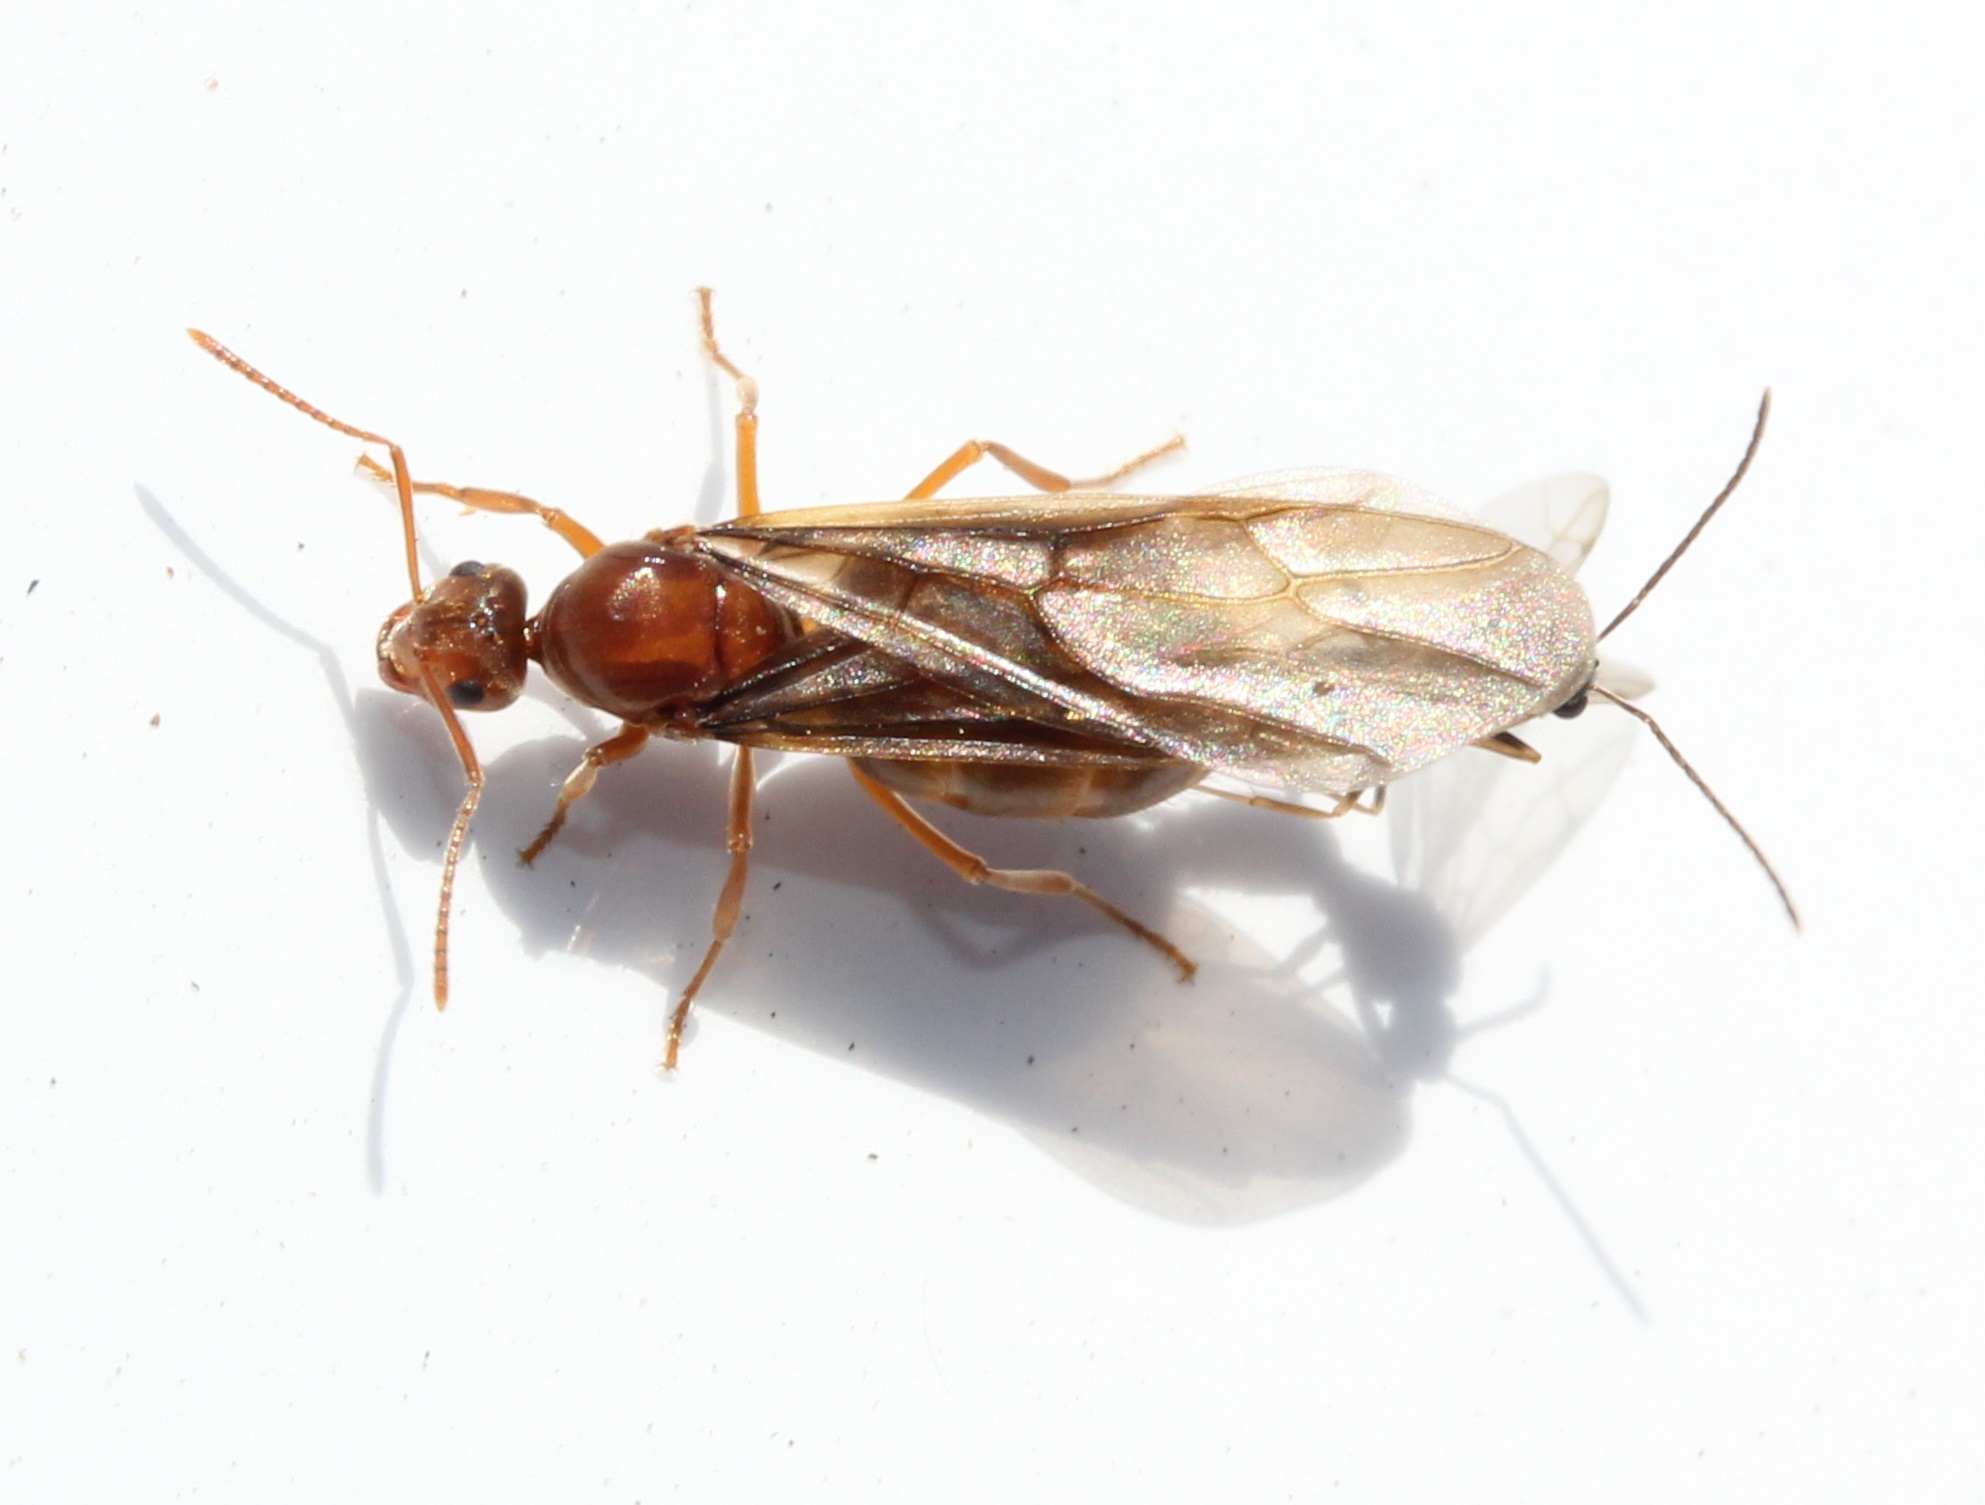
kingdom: Animalia
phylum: Arthropoda
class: Insecta
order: Hymenoptera
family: Formicidae
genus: Prenolepis
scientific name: Prenolepis imparis
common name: Small honey ant
